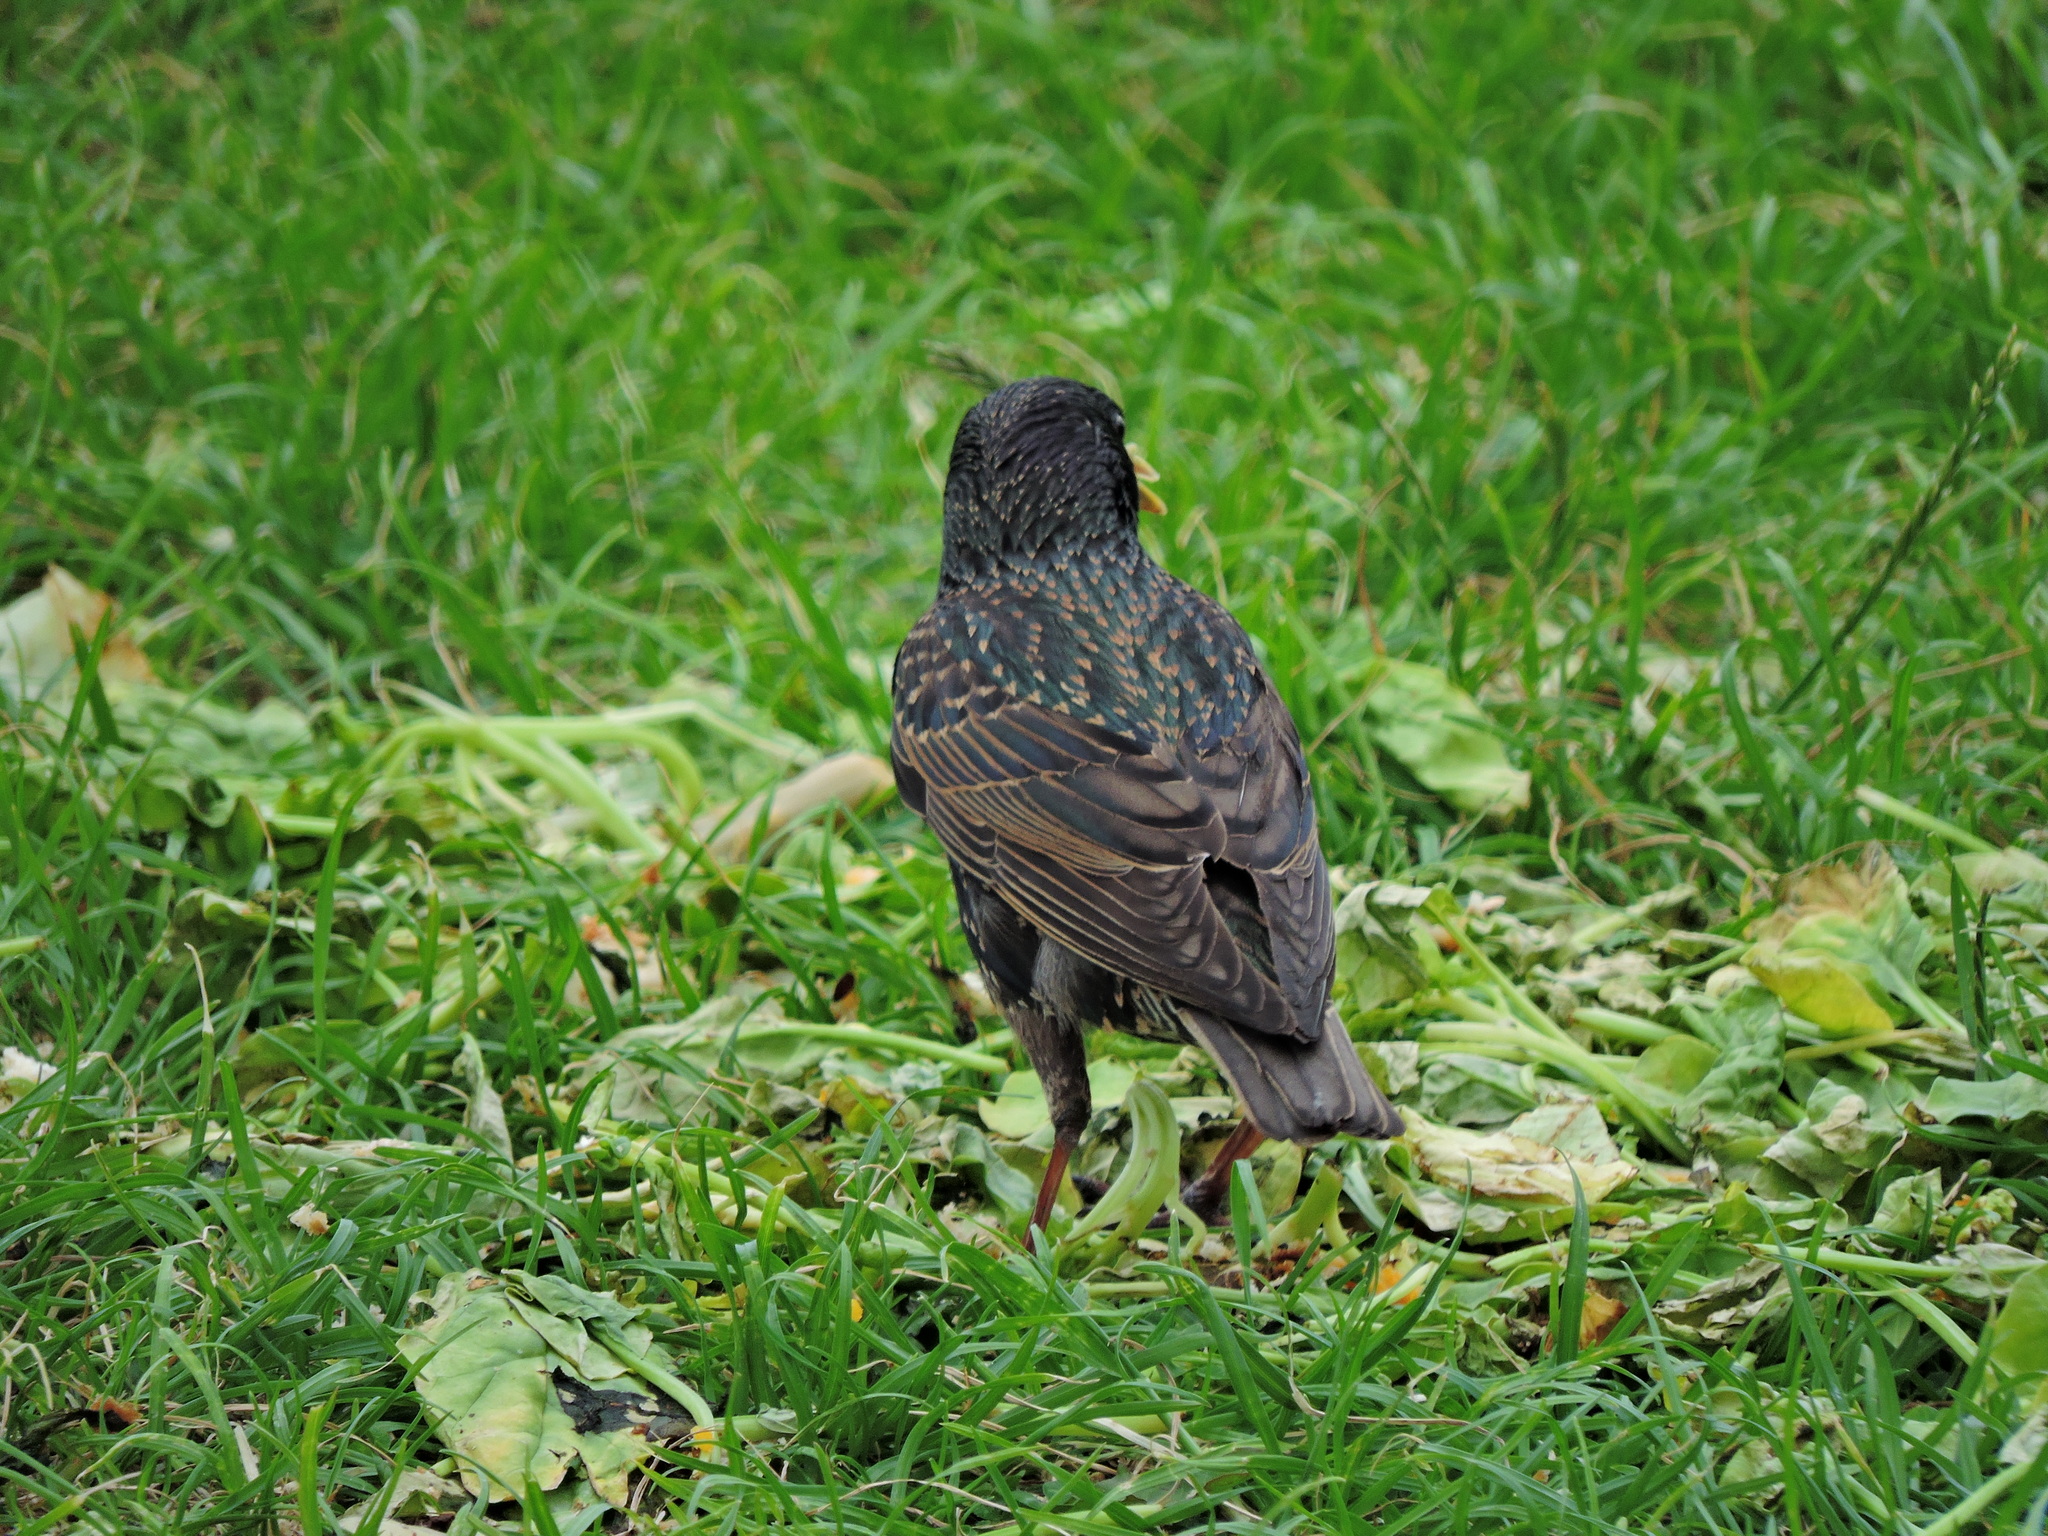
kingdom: Animalia
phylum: Chordata
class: Aves
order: Passeriformes
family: Sturnidae
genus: Sturnus
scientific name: Sturnus vulgaris
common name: Common starling
